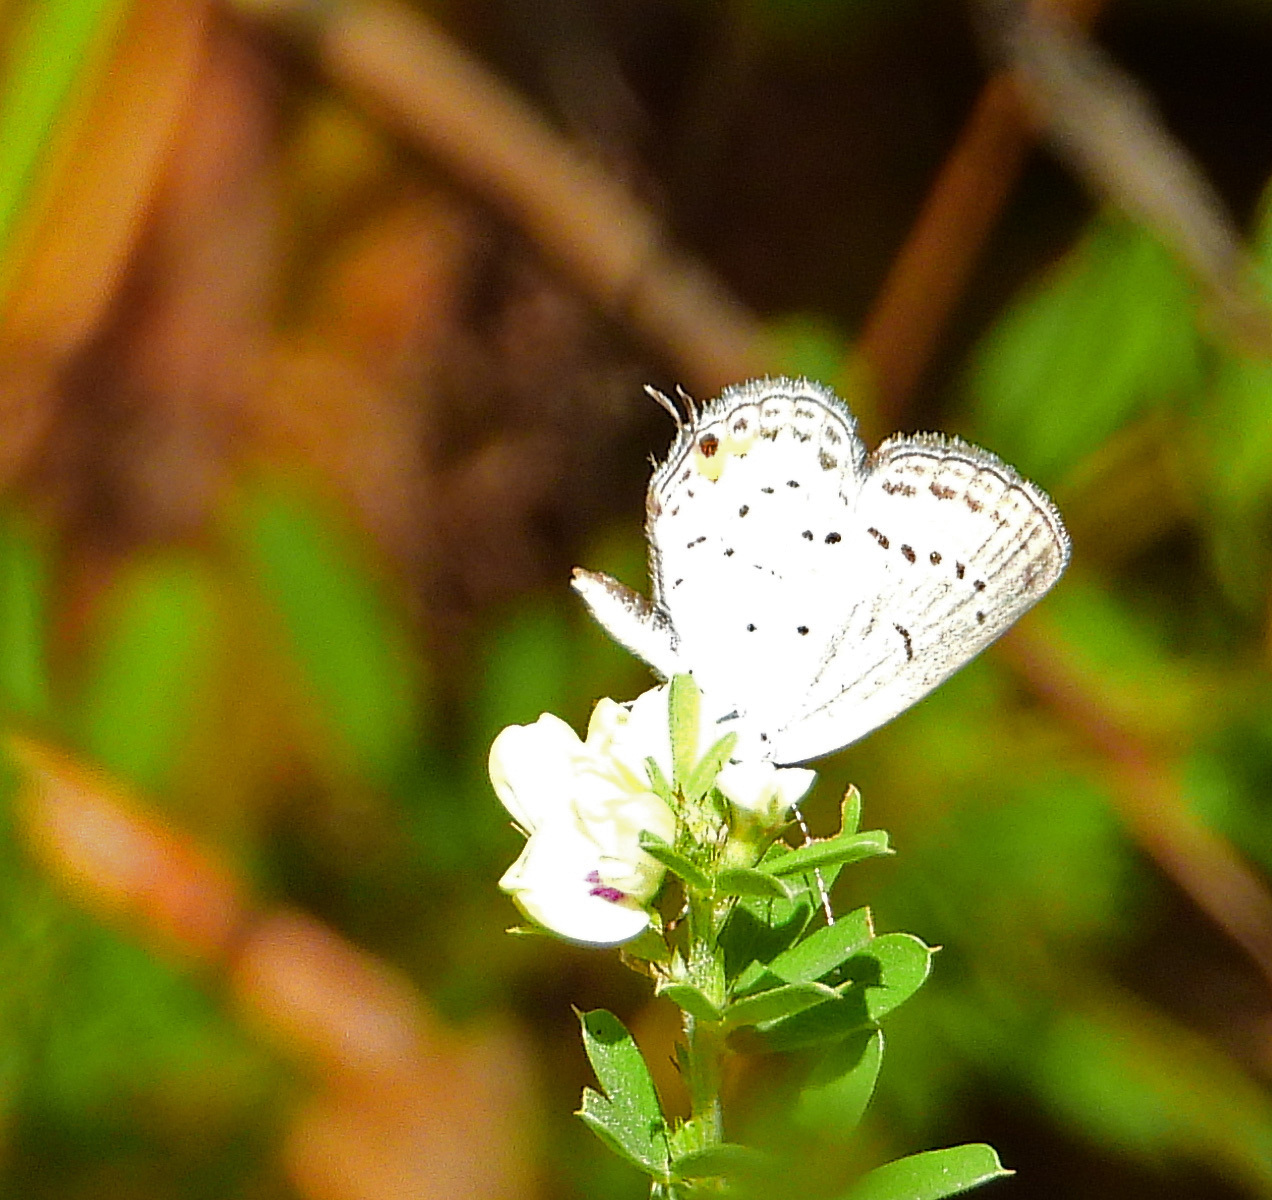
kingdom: Animalia
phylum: Arthropoda
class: Insecta
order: Lepidoptera
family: Lycaenidae
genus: Elkalyce
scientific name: Elkalyce comyntas
